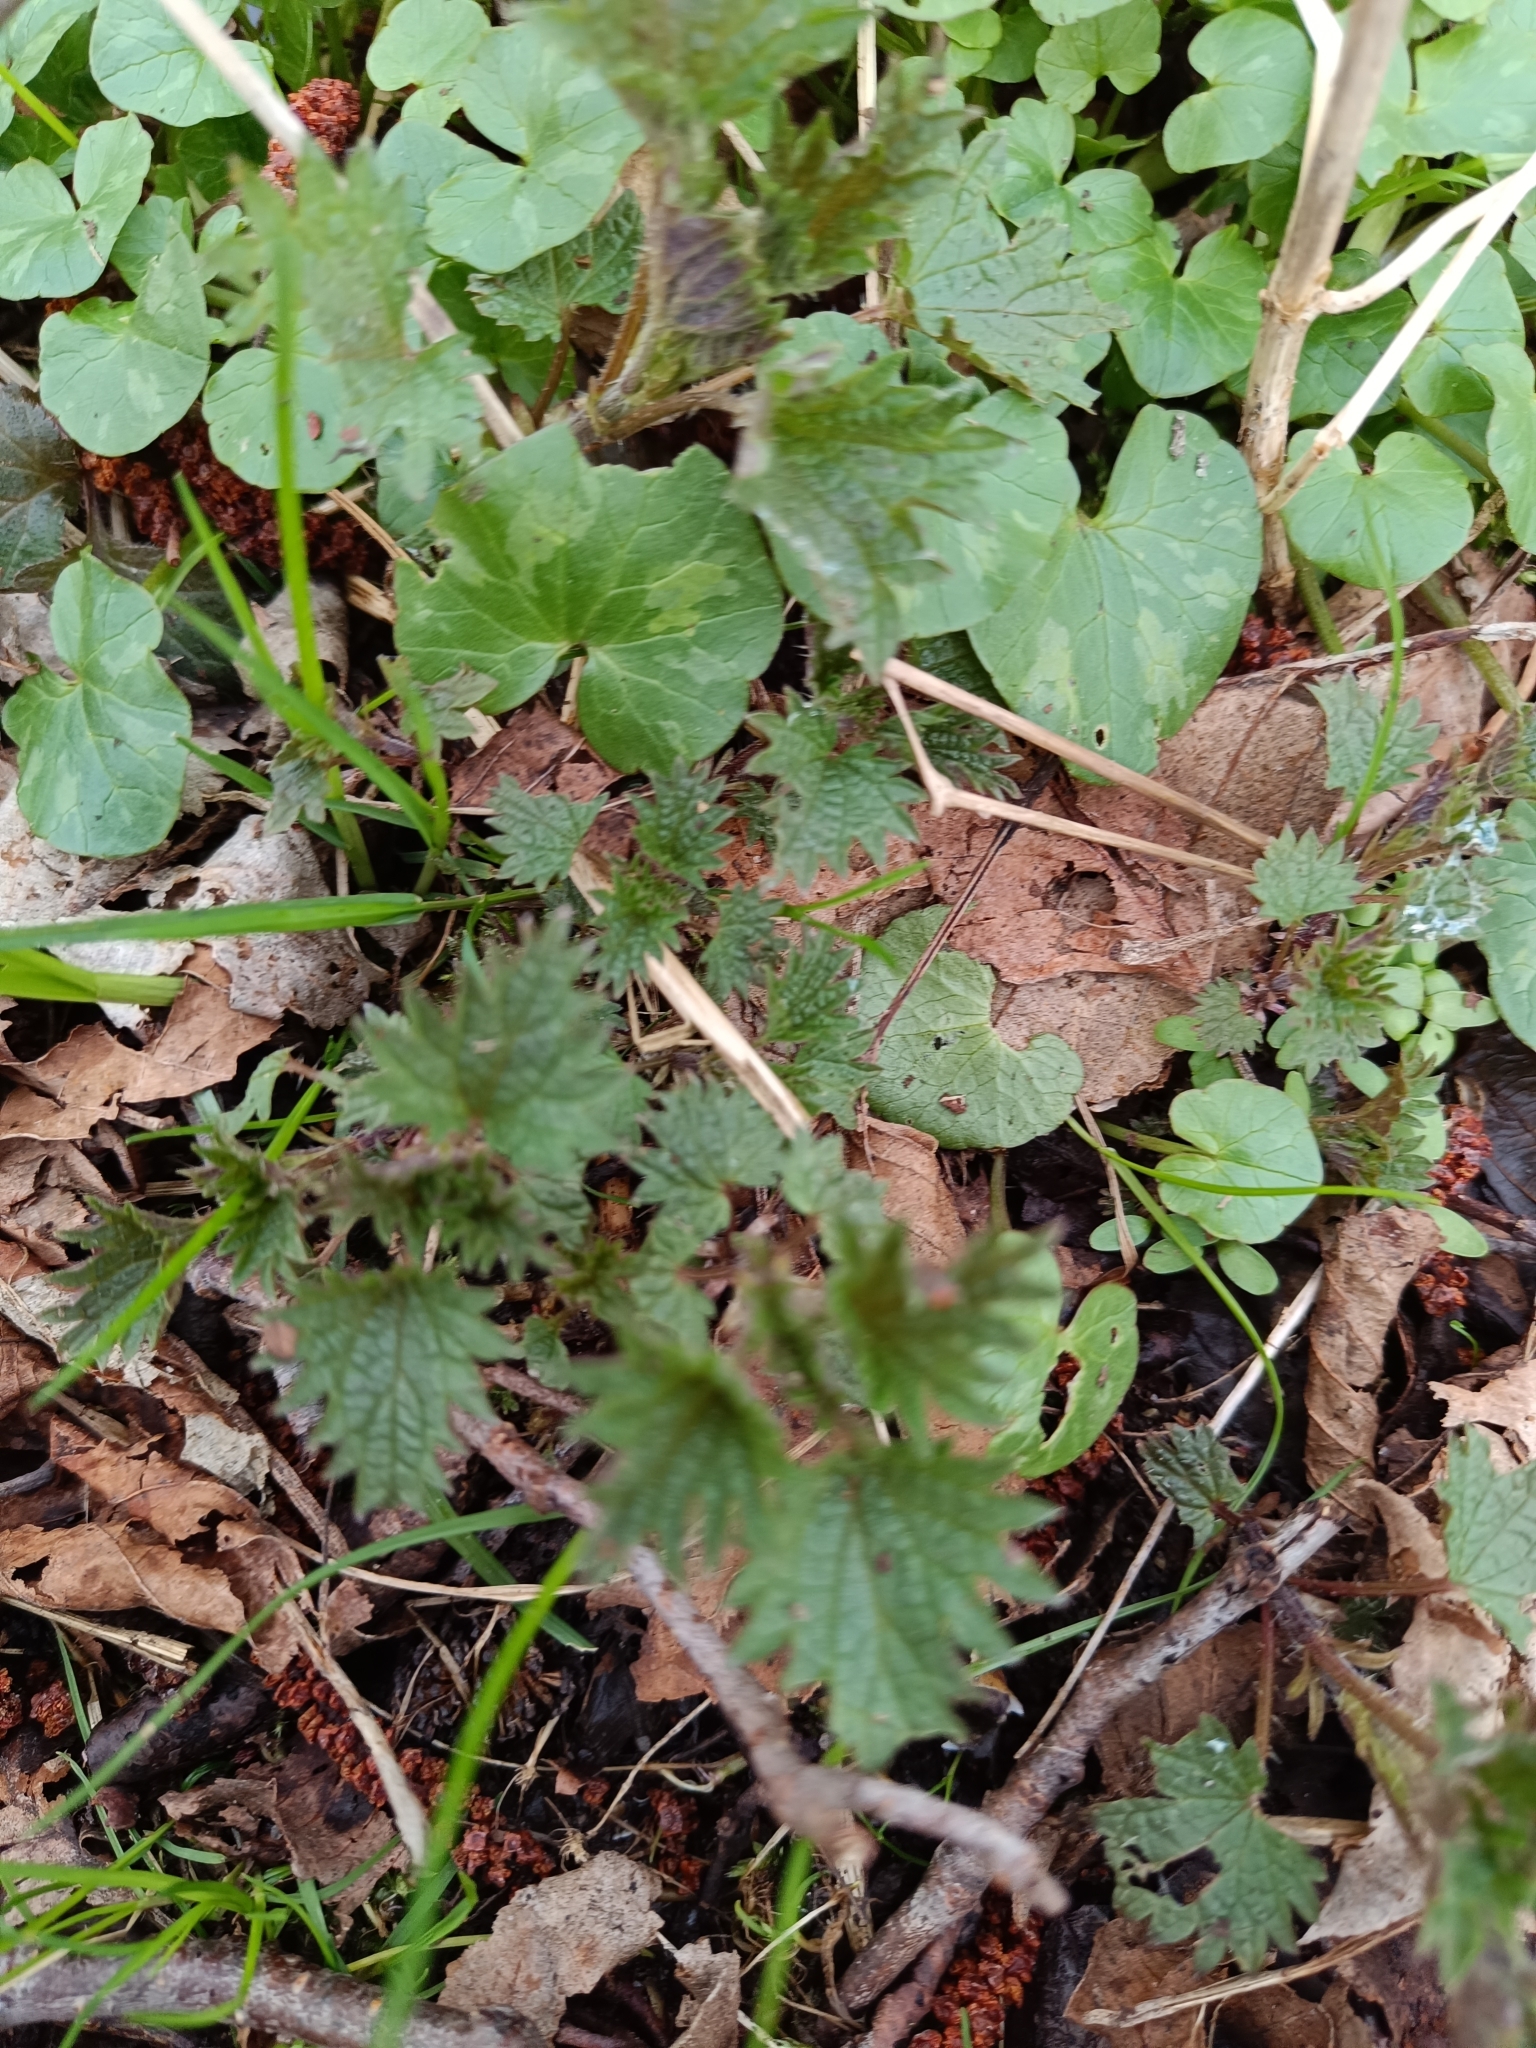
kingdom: Plantae
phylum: Tracheophyta
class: Magnoliopsida
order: Rosales
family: Urticaceae
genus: Urtica
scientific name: Urtica dioica
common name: Common nettle
